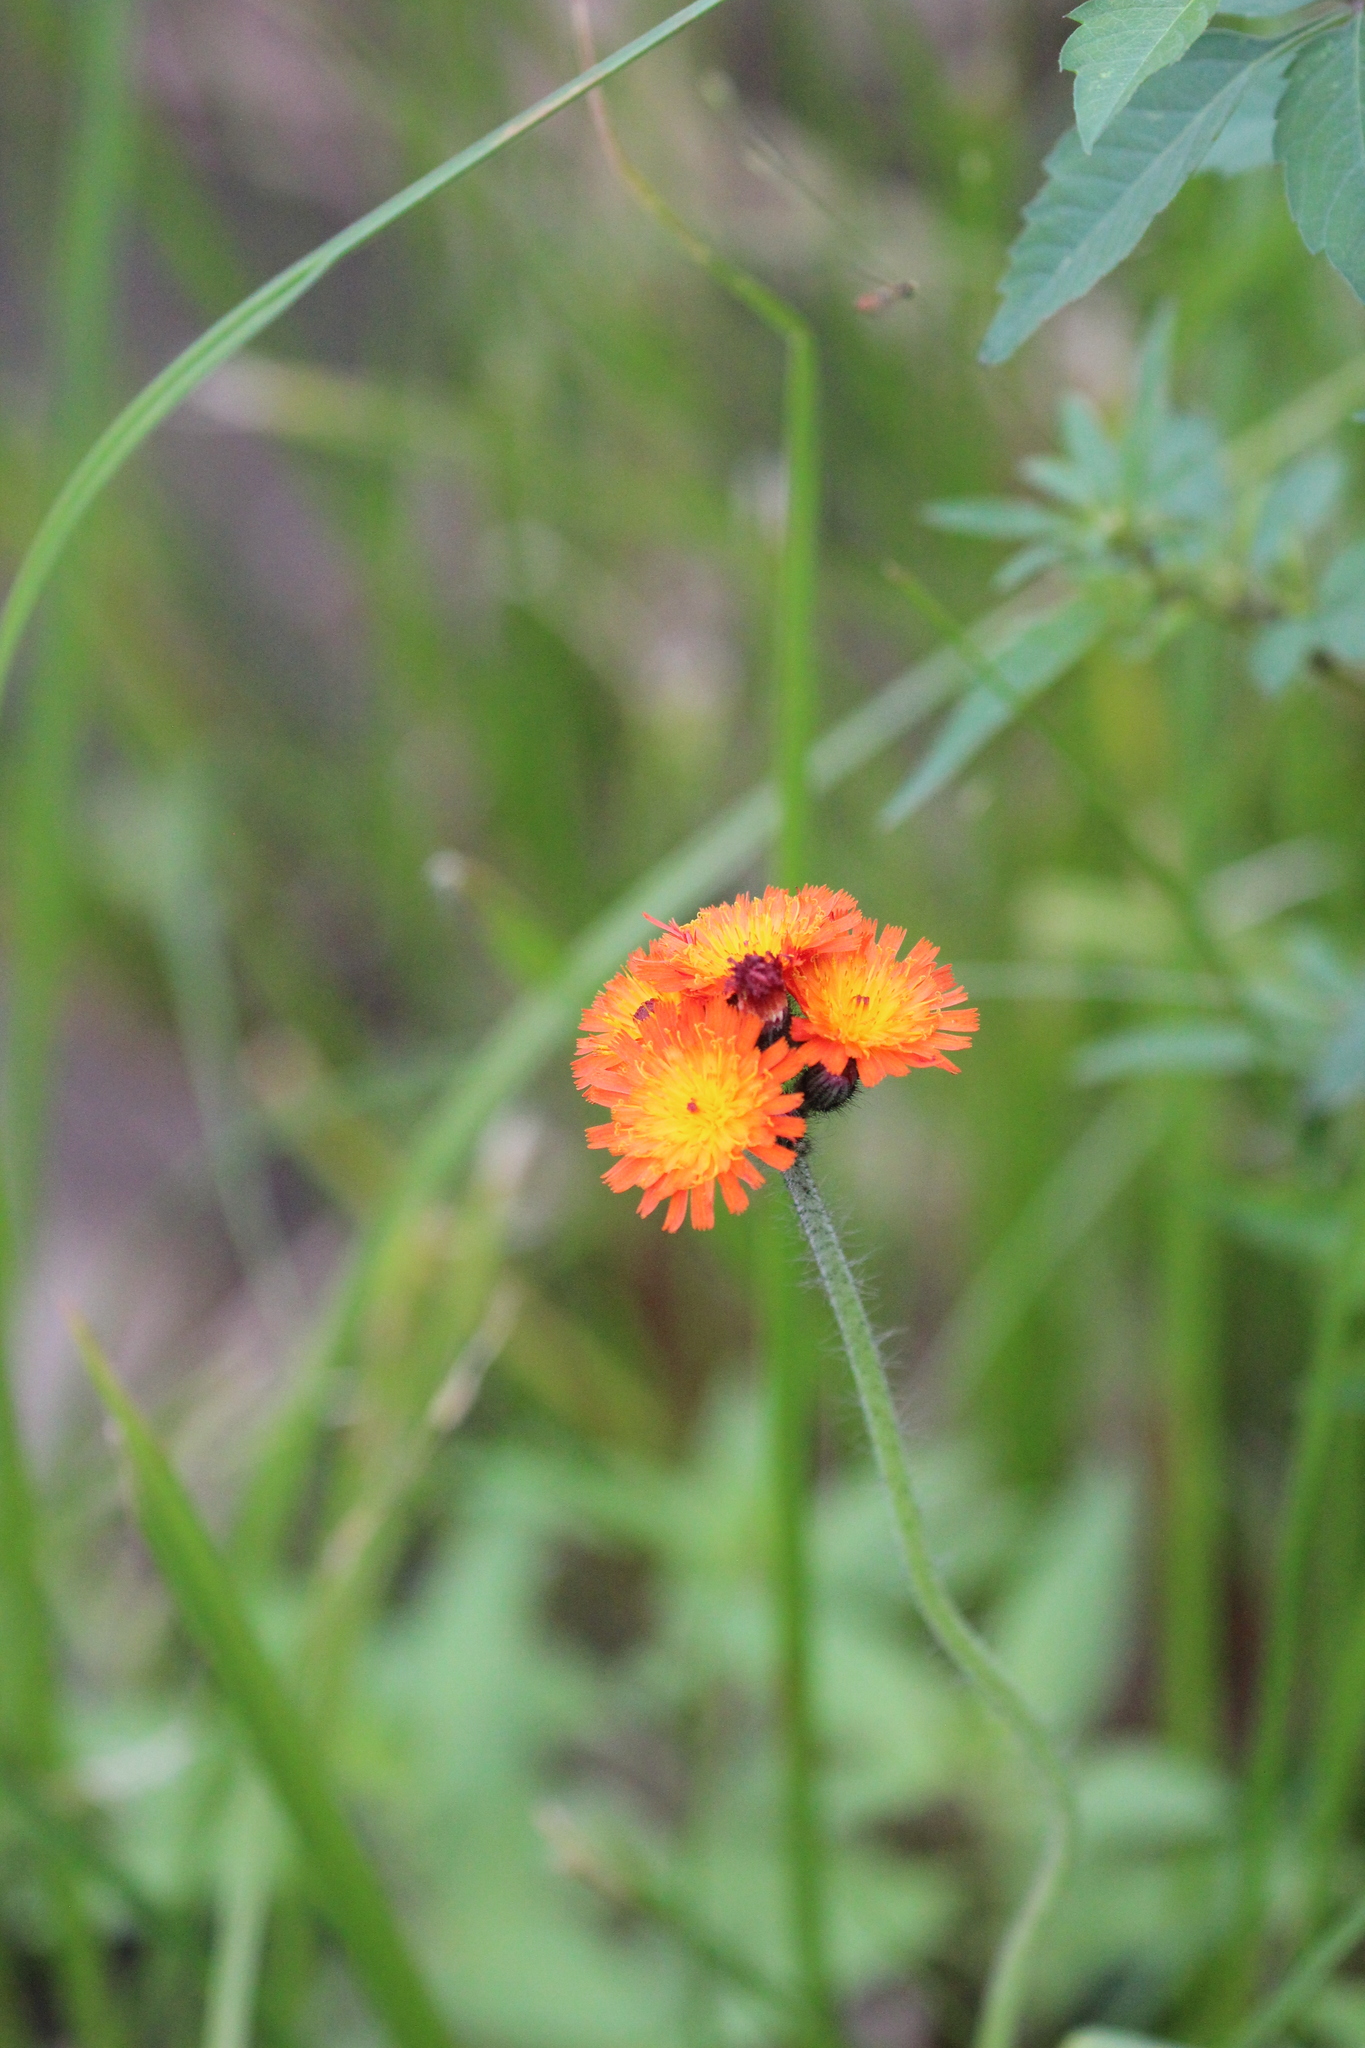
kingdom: Plantae
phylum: Tracheophyta
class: Magnoliopsida
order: Asterales
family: Asteraceae
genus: Pilosella
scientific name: Pilosella aurantiaca
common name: Fox-and-cubs
